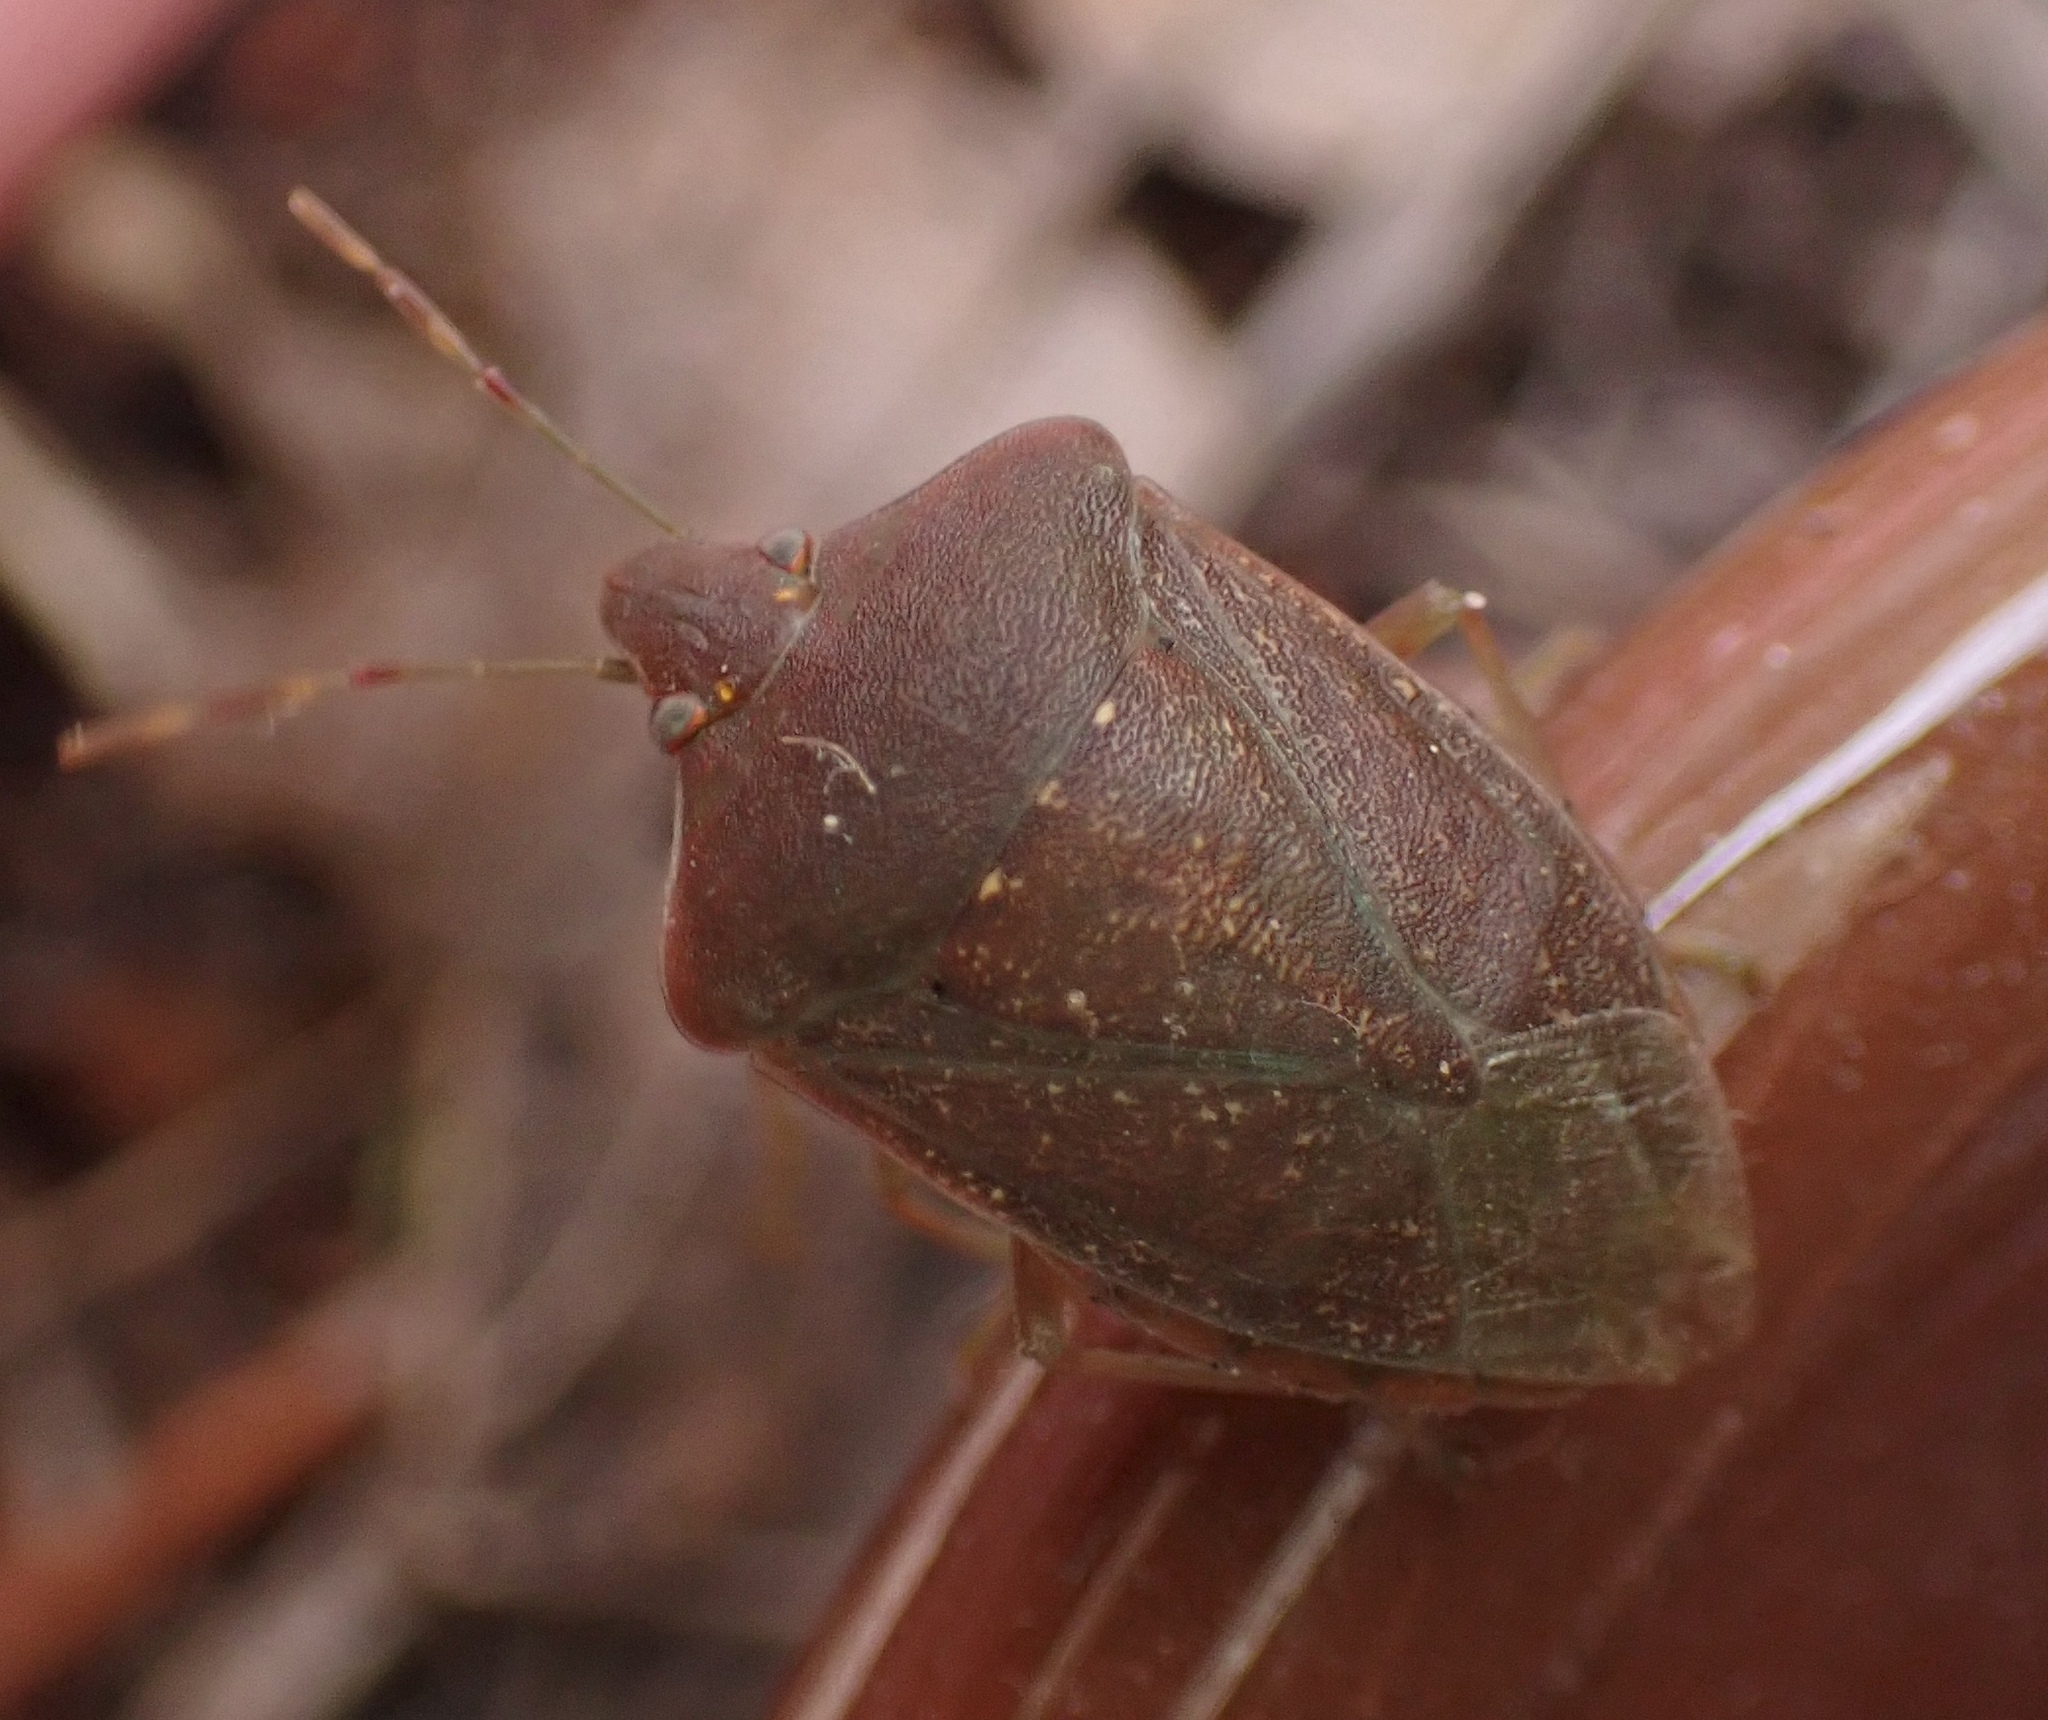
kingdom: Animalia
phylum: Arthropoda
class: Insecta
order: Hemiptera
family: Pentatomidae
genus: Nezara
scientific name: Nezara viridula
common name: Southern green stink bug
